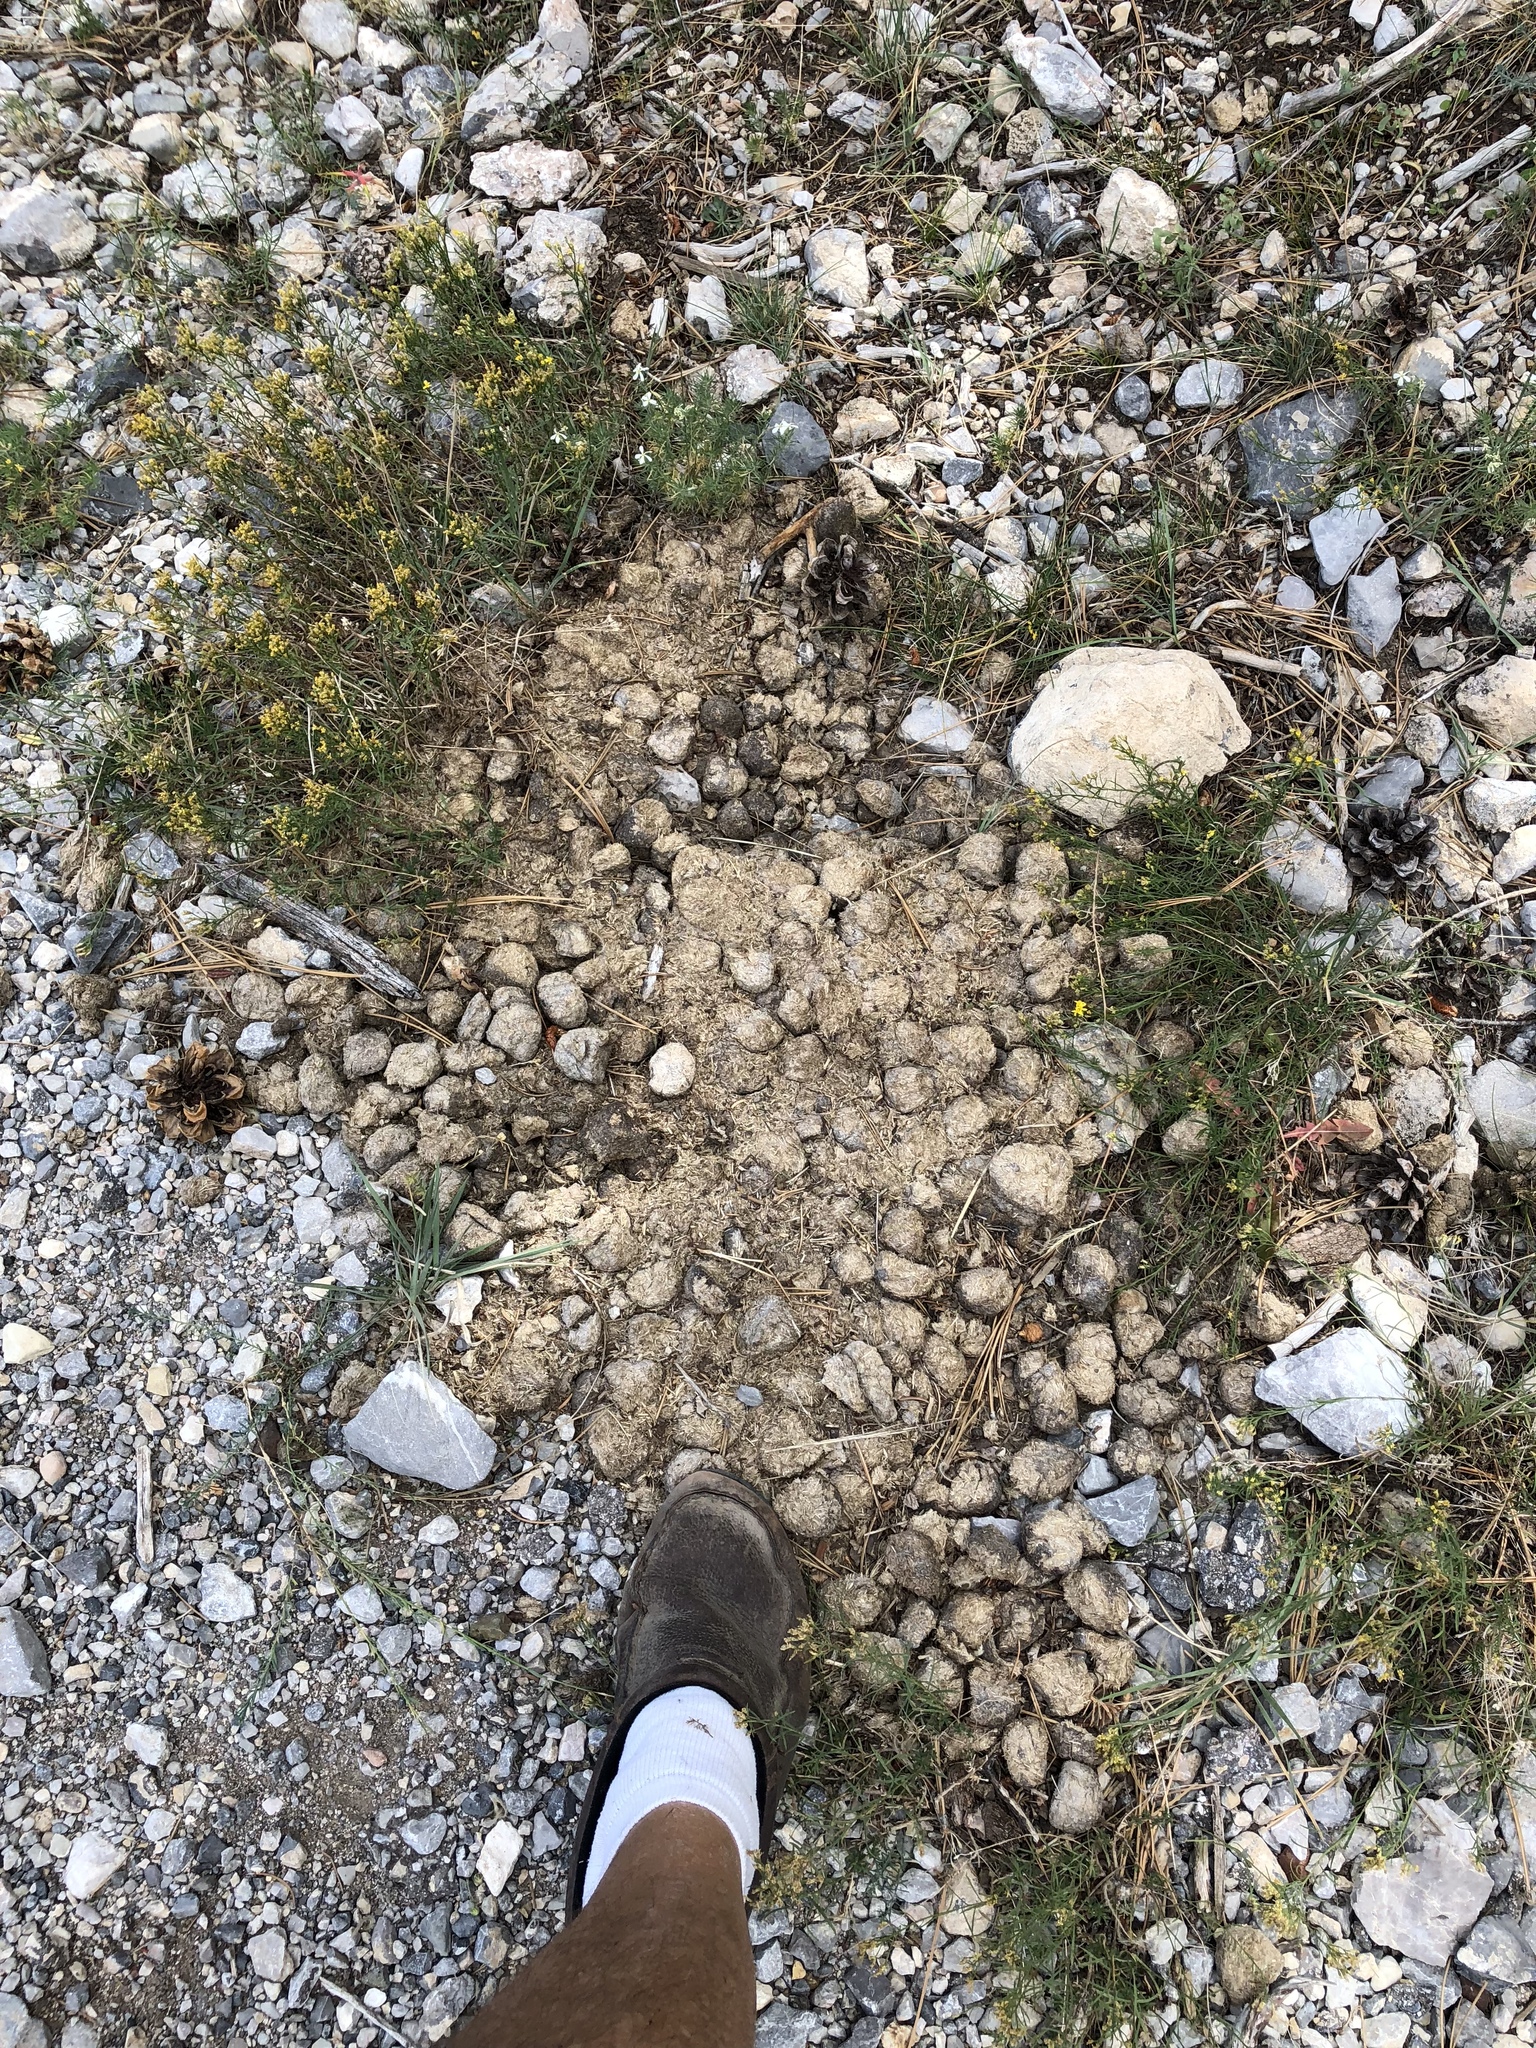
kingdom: Animalia
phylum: Chordata
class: Mammalia
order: Perissodactyla
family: Equidae
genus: Equus
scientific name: Equus caballus
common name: Horse
